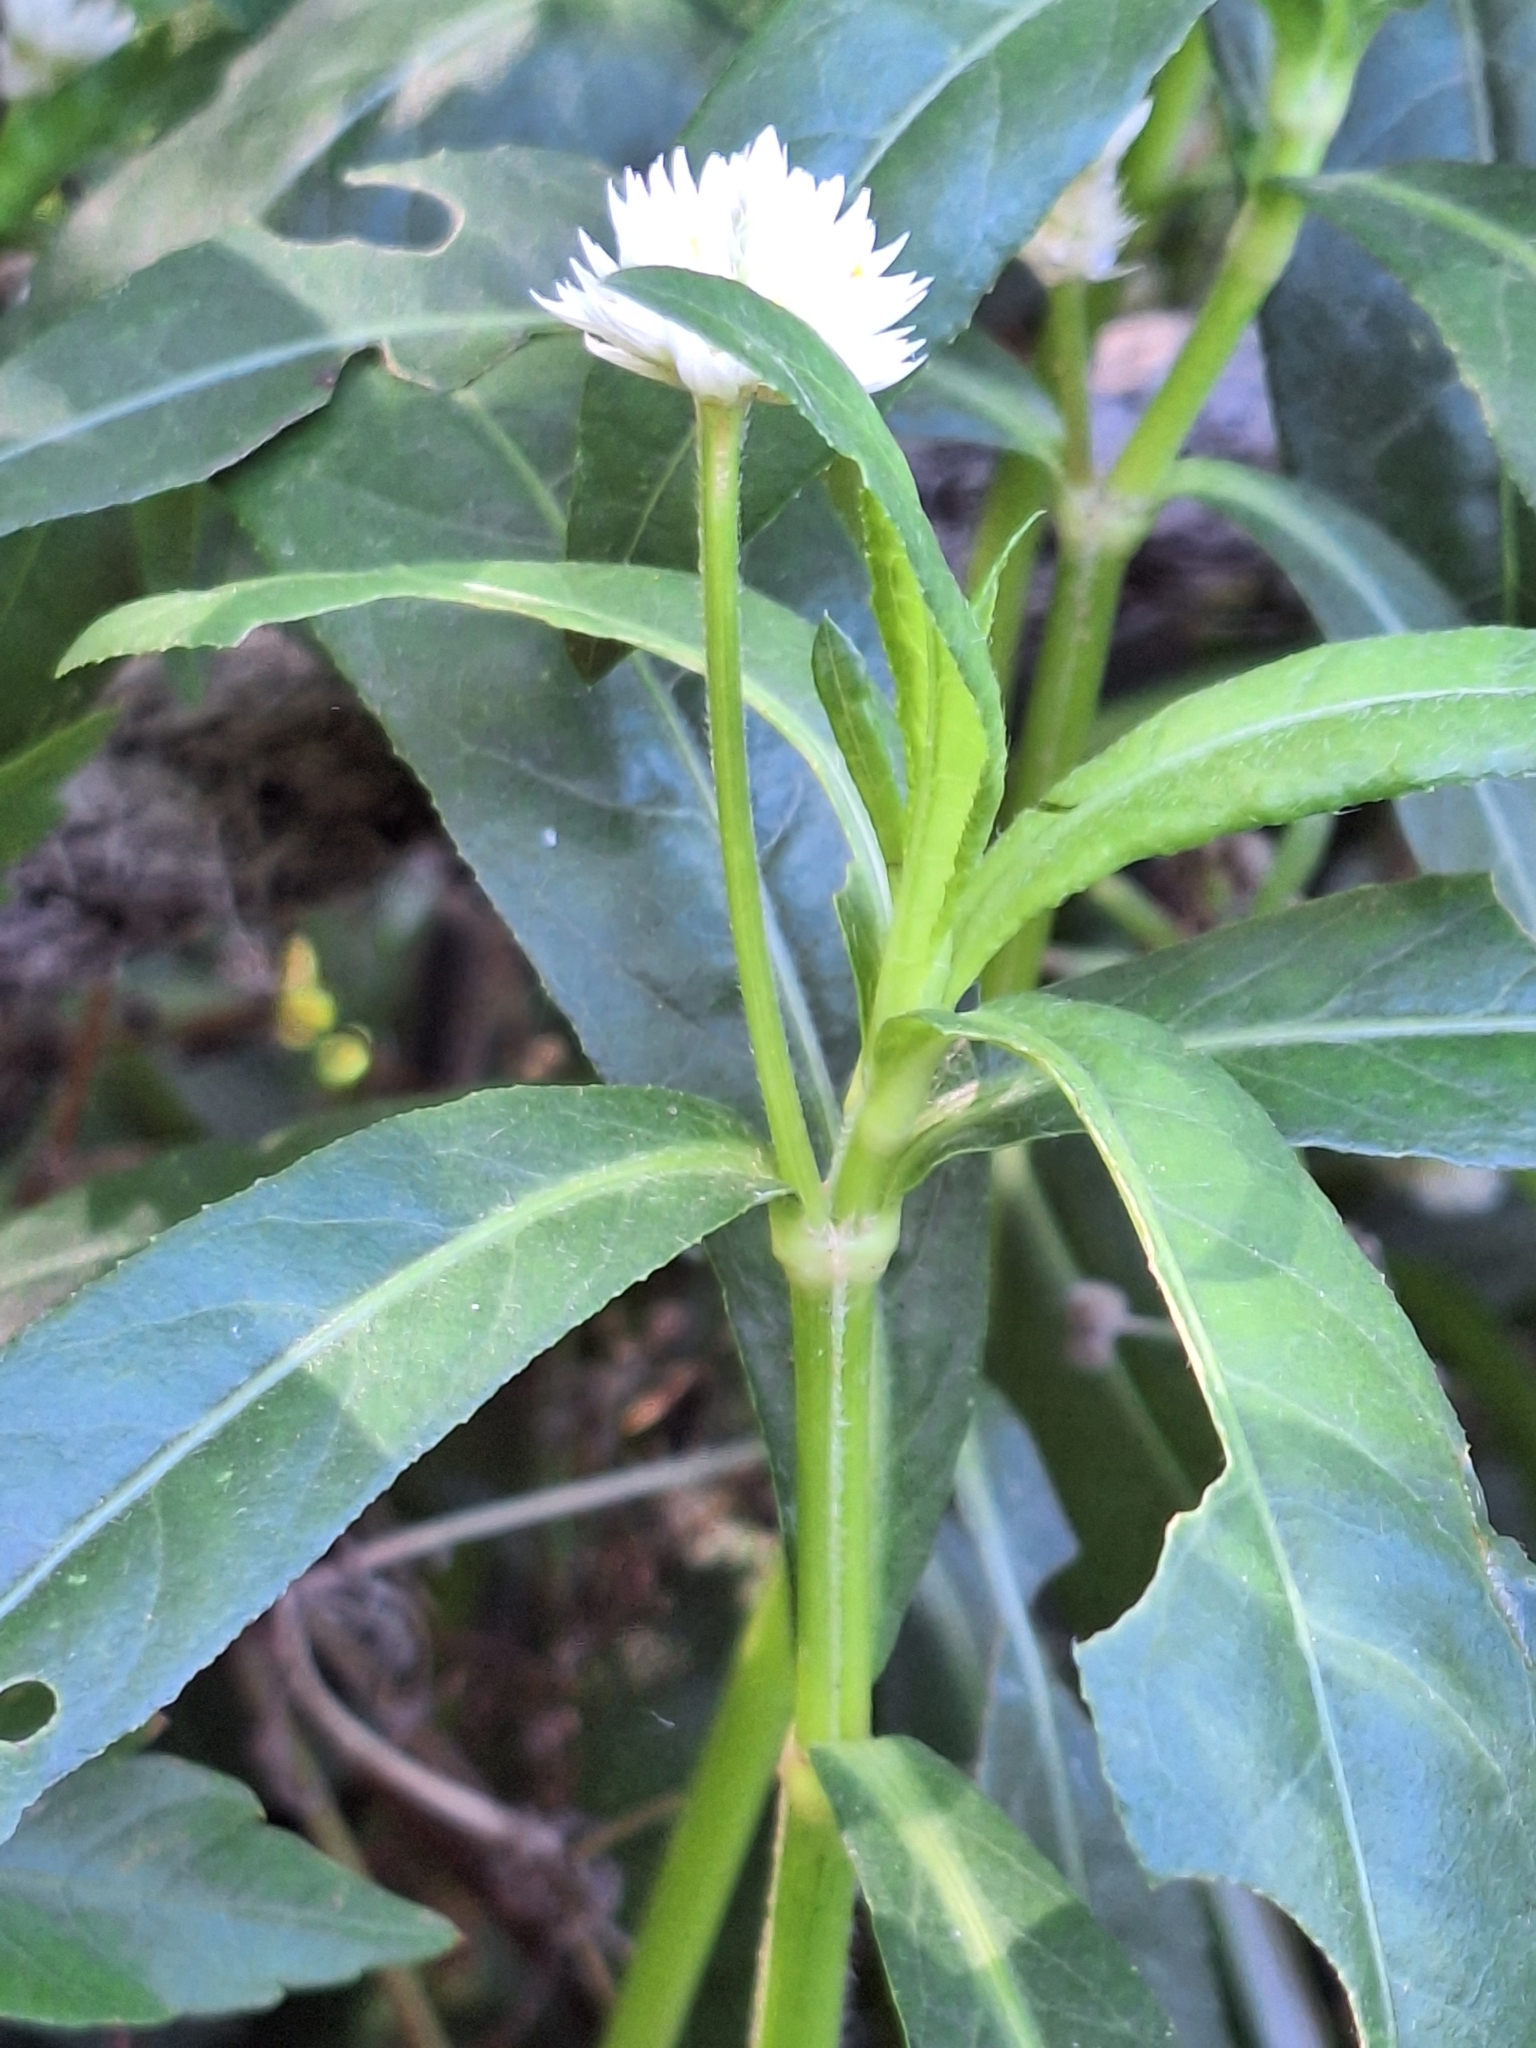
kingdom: Plantae
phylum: Tracheophyta
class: Magnoliopsida
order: Caryophyllales
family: Amaranthaceae
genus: Alternanthera
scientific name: Alternanthera philoxeroides
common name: Alligatorweed
